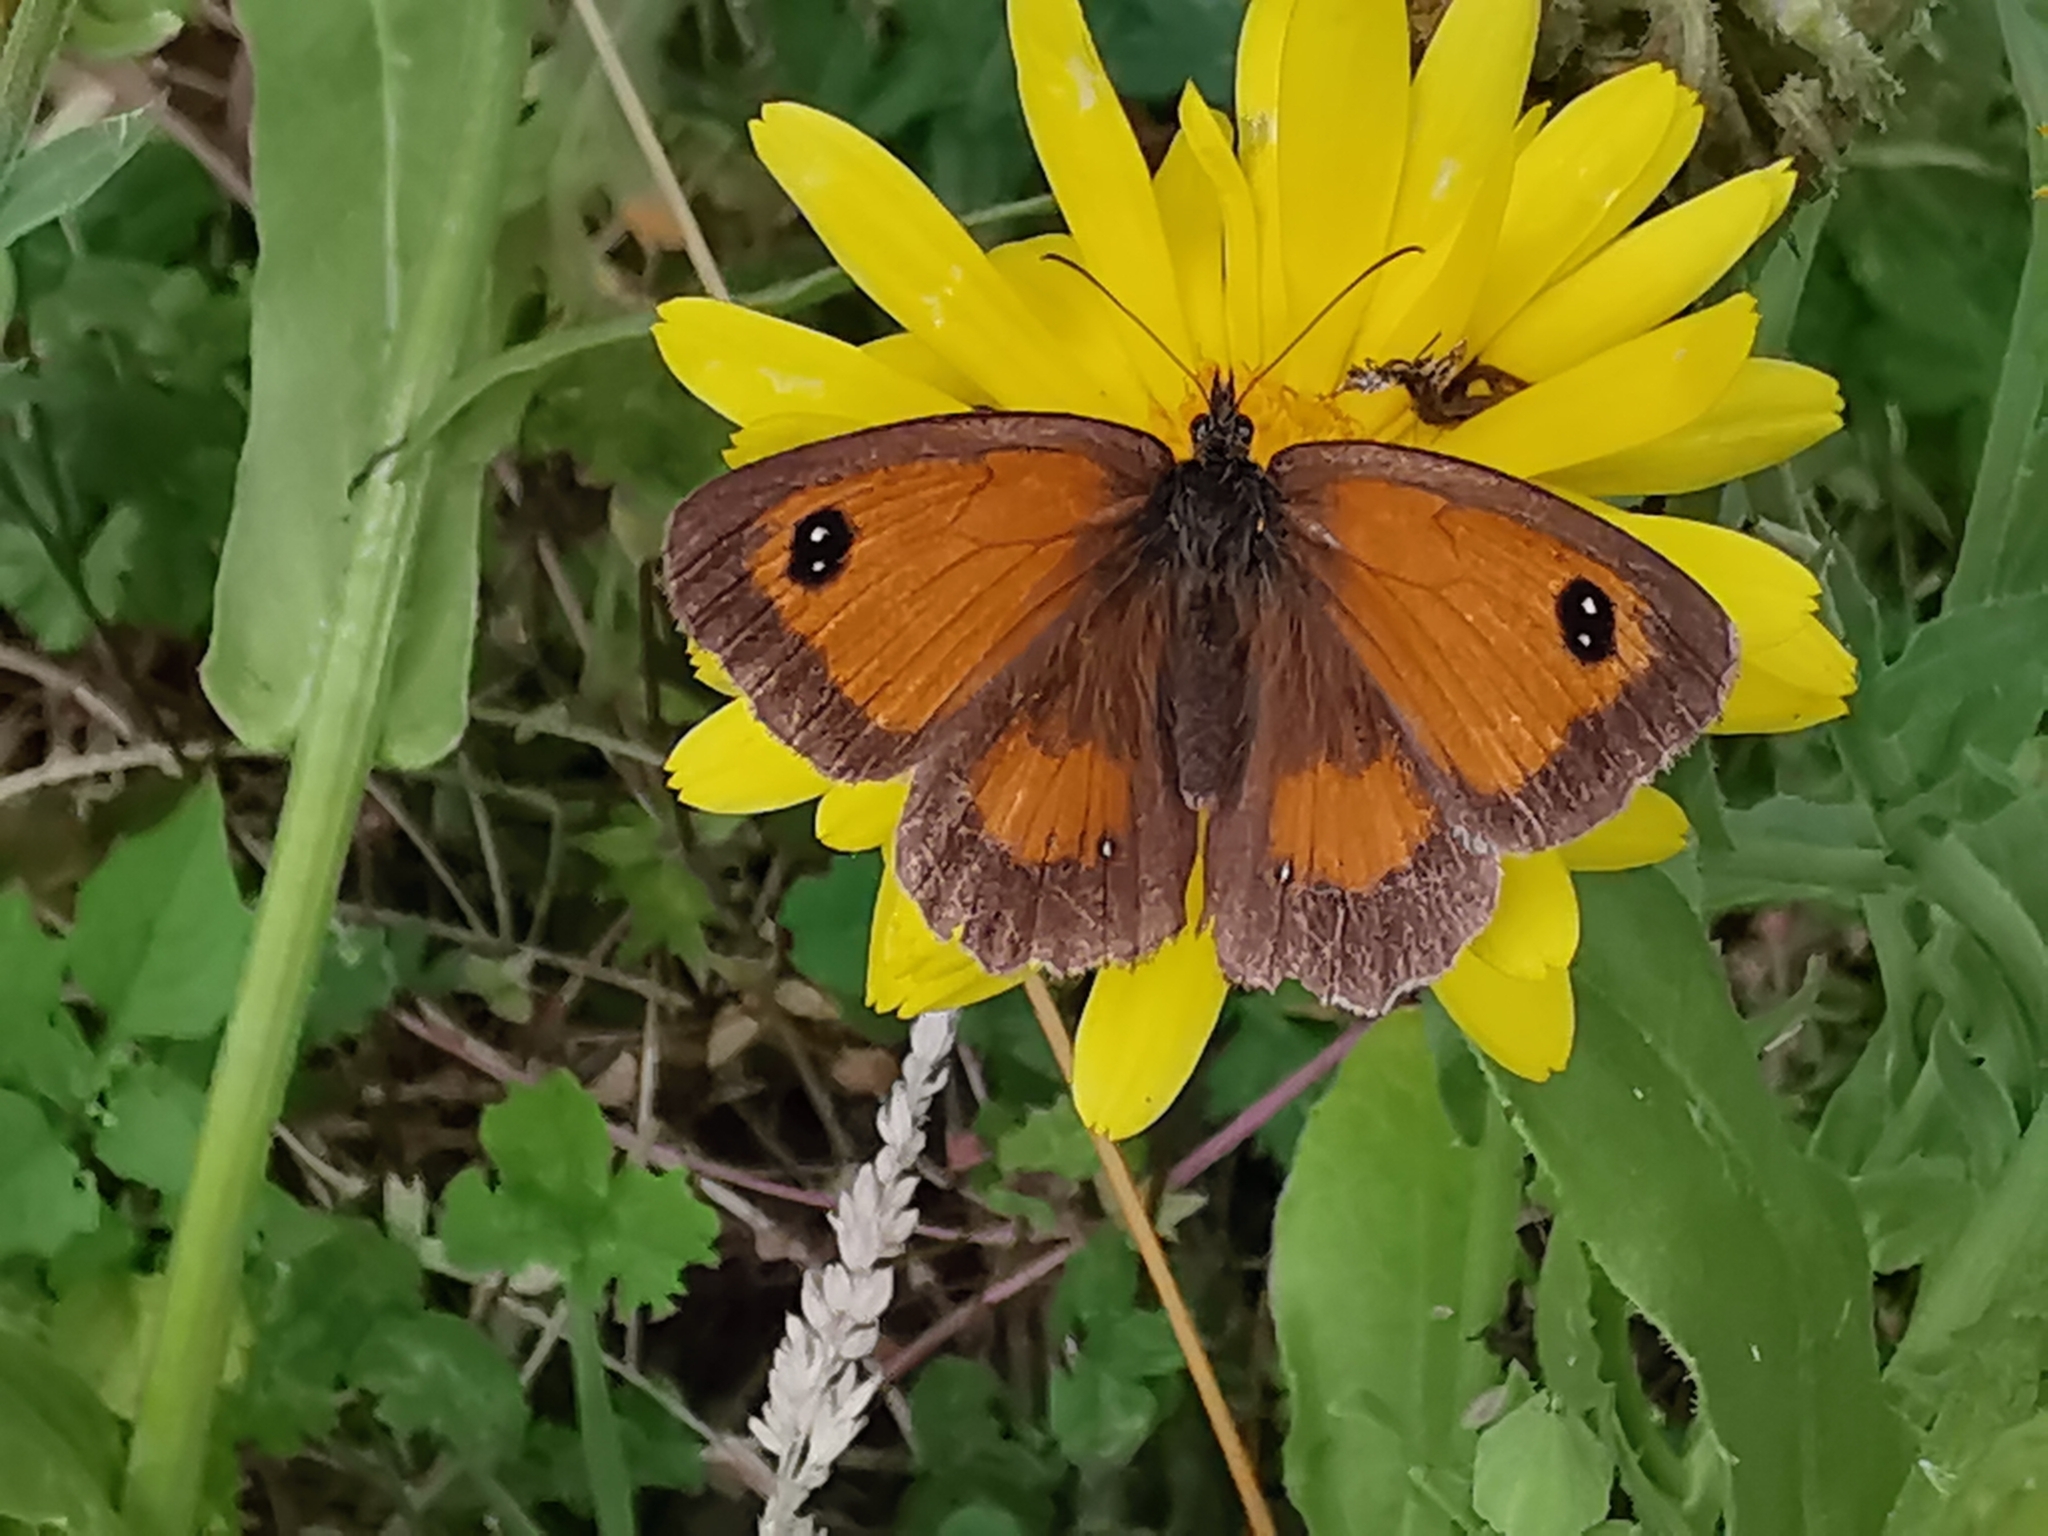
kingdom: Animalia
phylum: Arthropoda
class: Insecta
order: Lepidoptera
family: Nymphalidae
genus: Pyronia
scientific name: Pyronia tithonus
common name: Gatekeeper
